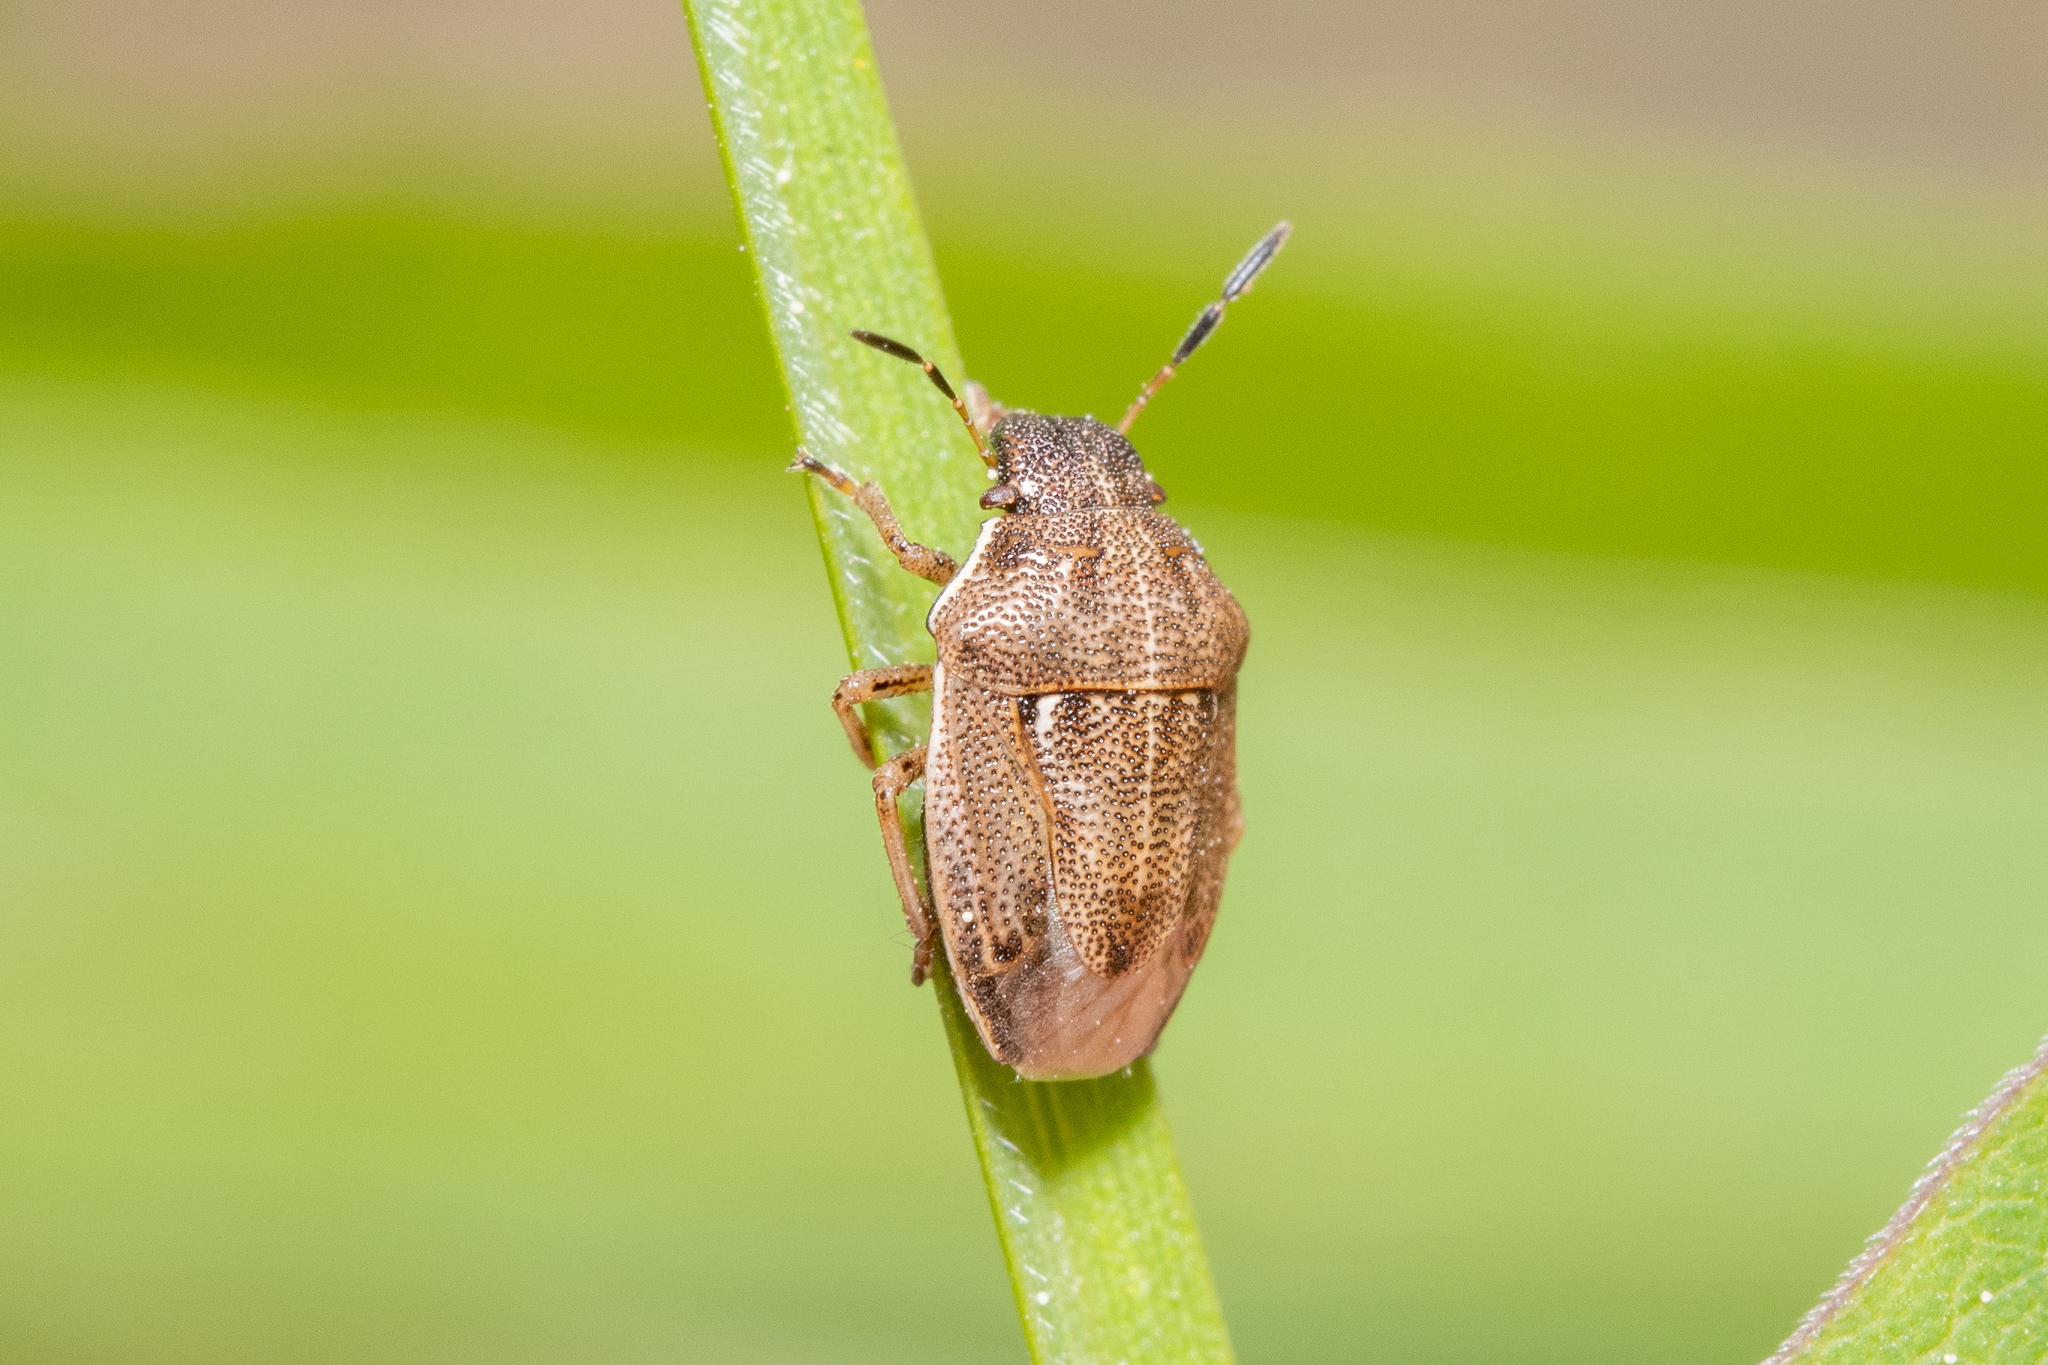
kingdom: Animalia
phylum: Arthropoda
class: Insecta
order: Hemiptera
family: Pentatomidae
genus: Neottiglossa
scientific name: Neottiglossa pusilla
